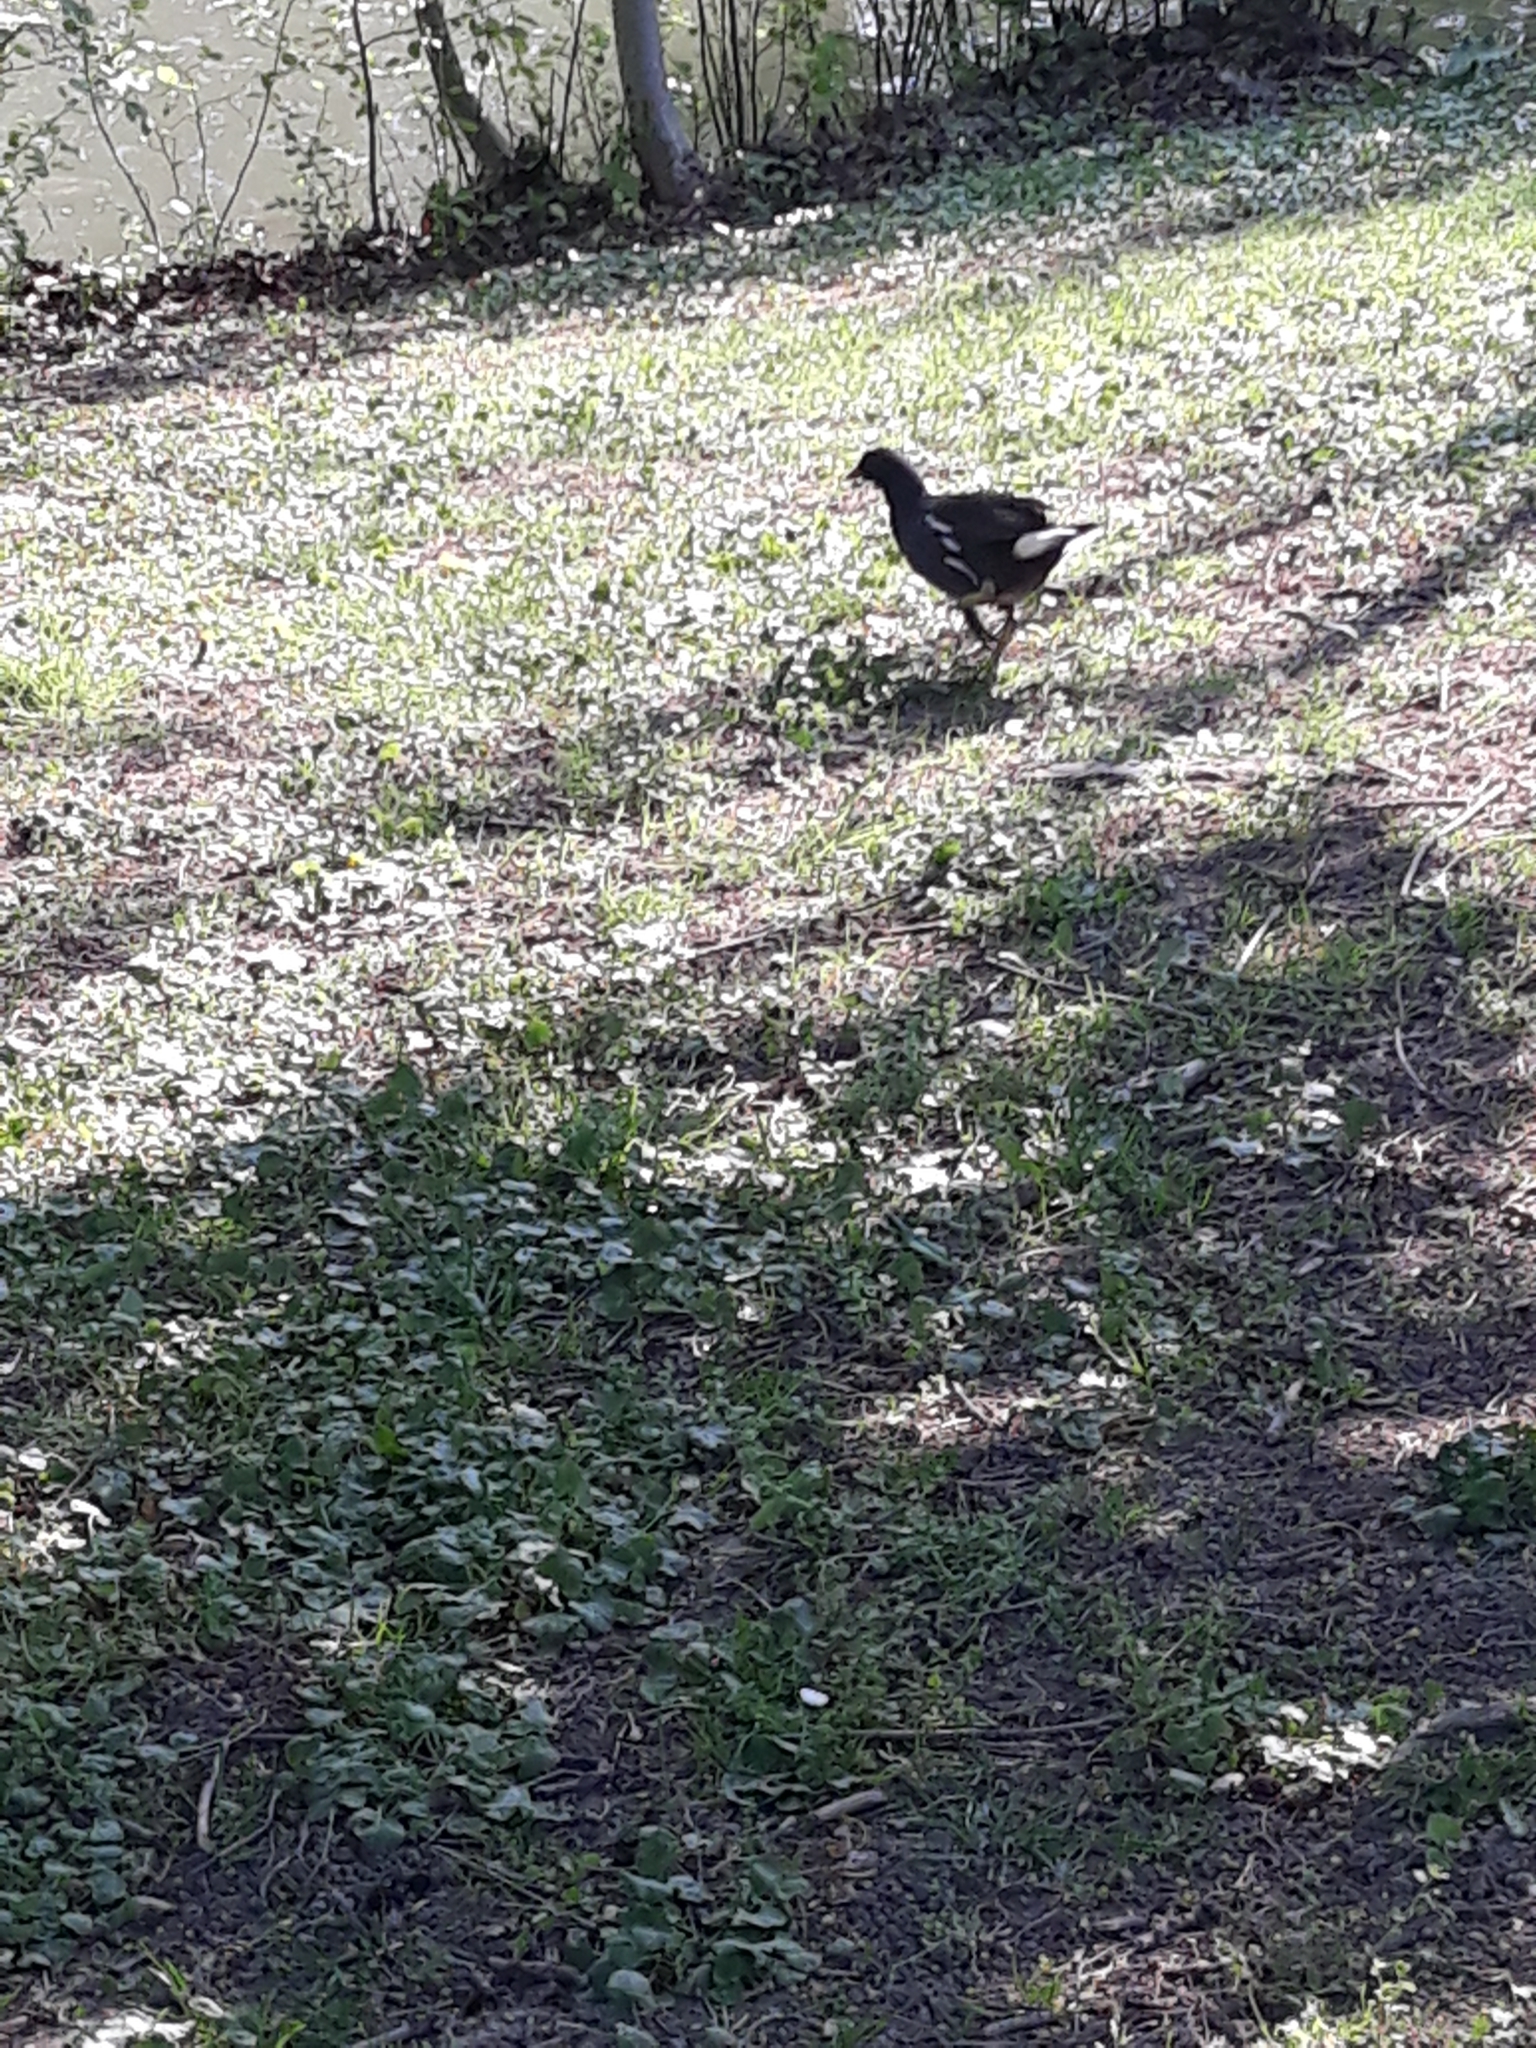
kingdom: Animalia
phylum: Chordata
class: Aves
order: Gruiformes
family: Rallidae
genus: Gallinula
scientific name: Gallinula chloropus
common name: Common moorhen
